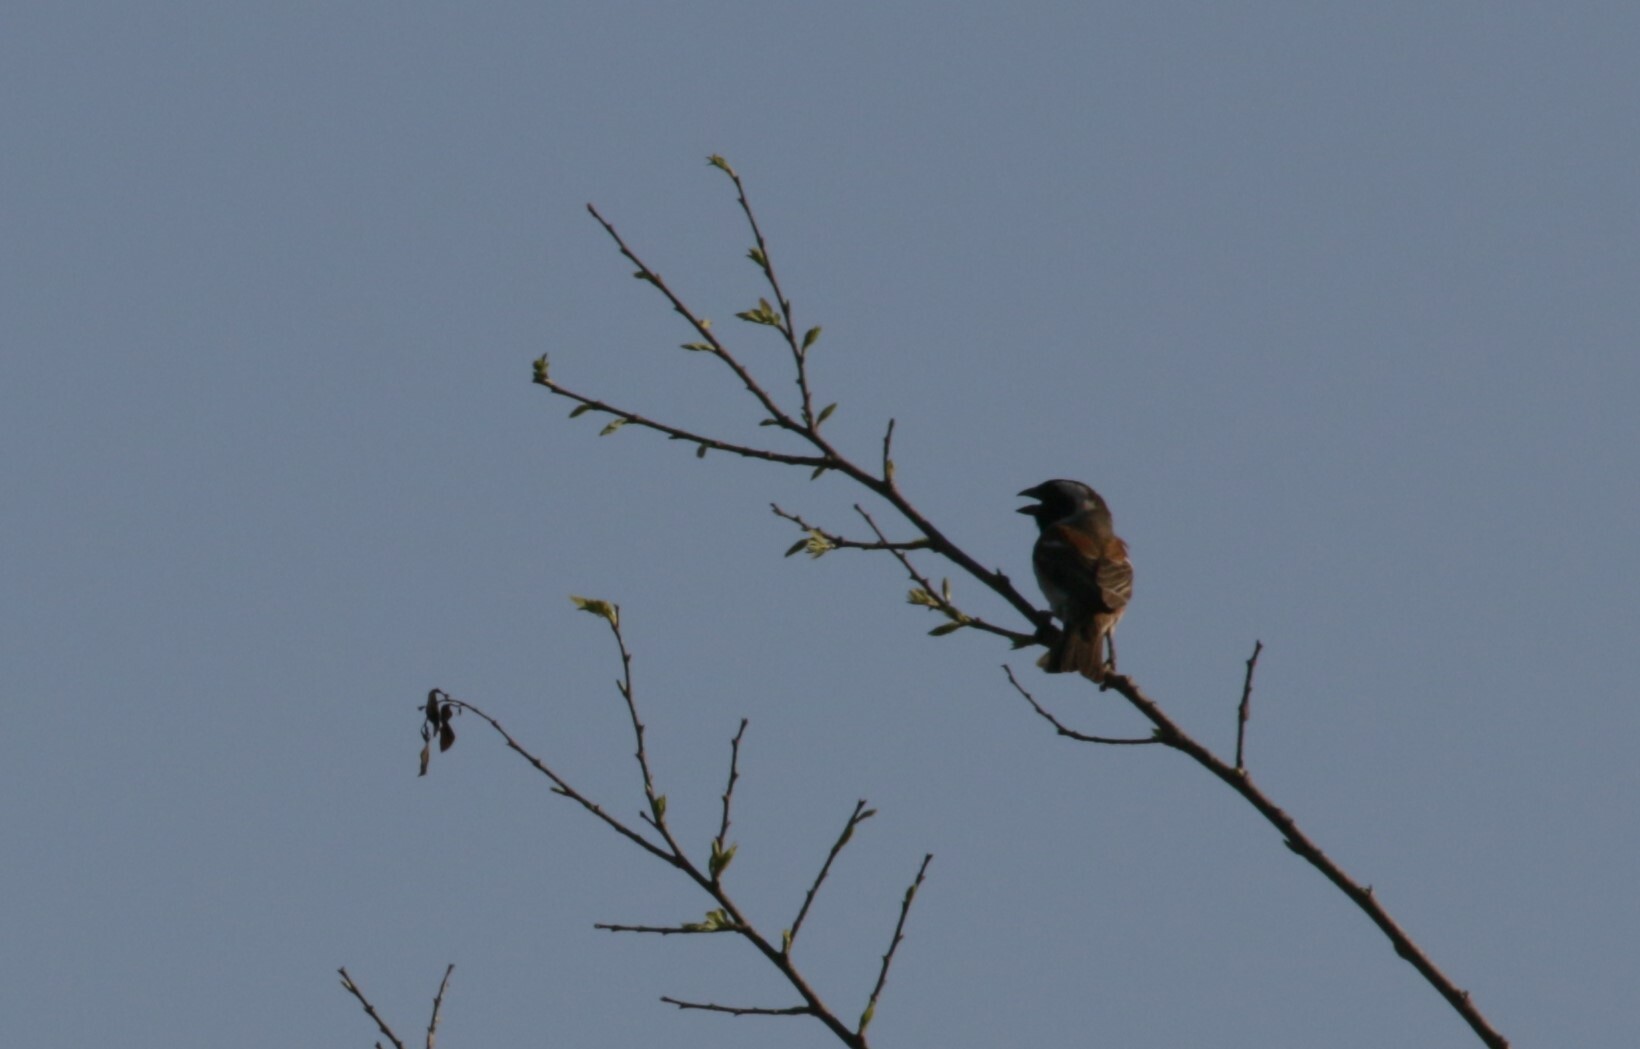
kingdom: Animalia
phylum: Chordata
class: Aves
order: Passeriformes
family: Passeridae
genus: Passer
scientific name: Passer melanurus
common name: Cape sparrow
